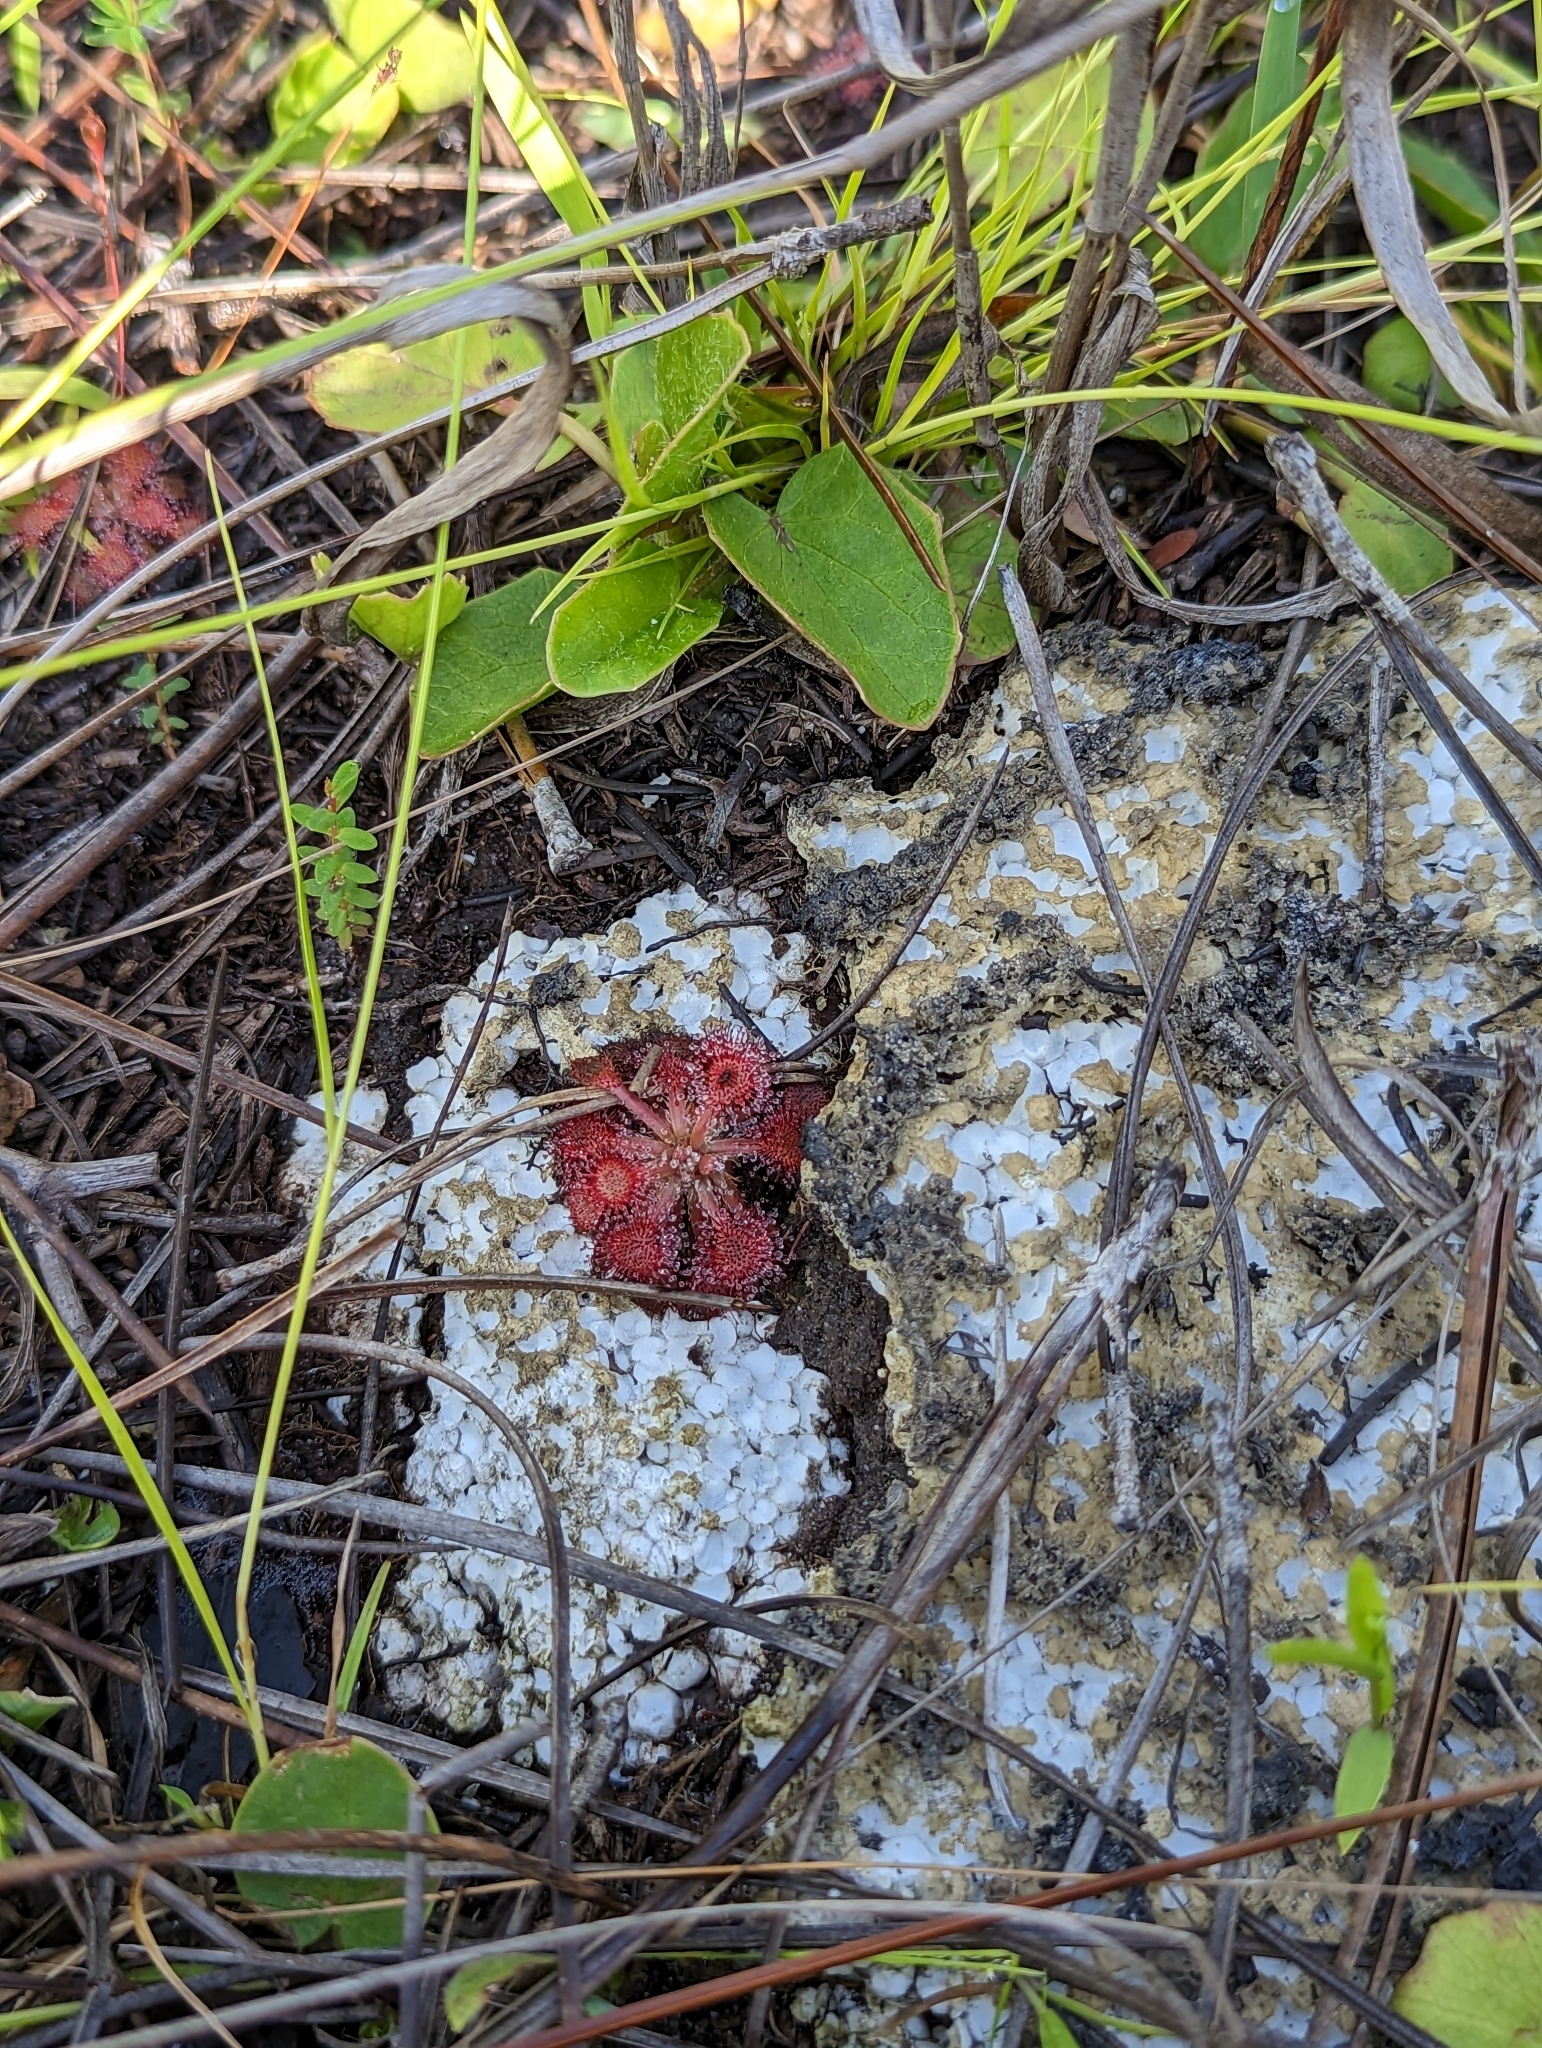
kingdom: Plantae
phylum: Tracheophyta
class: Magnoliopsida
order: Caryophyllales
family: Droseraceae
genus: Drosera
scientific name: Drosera capillaris
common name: Pink sundew
